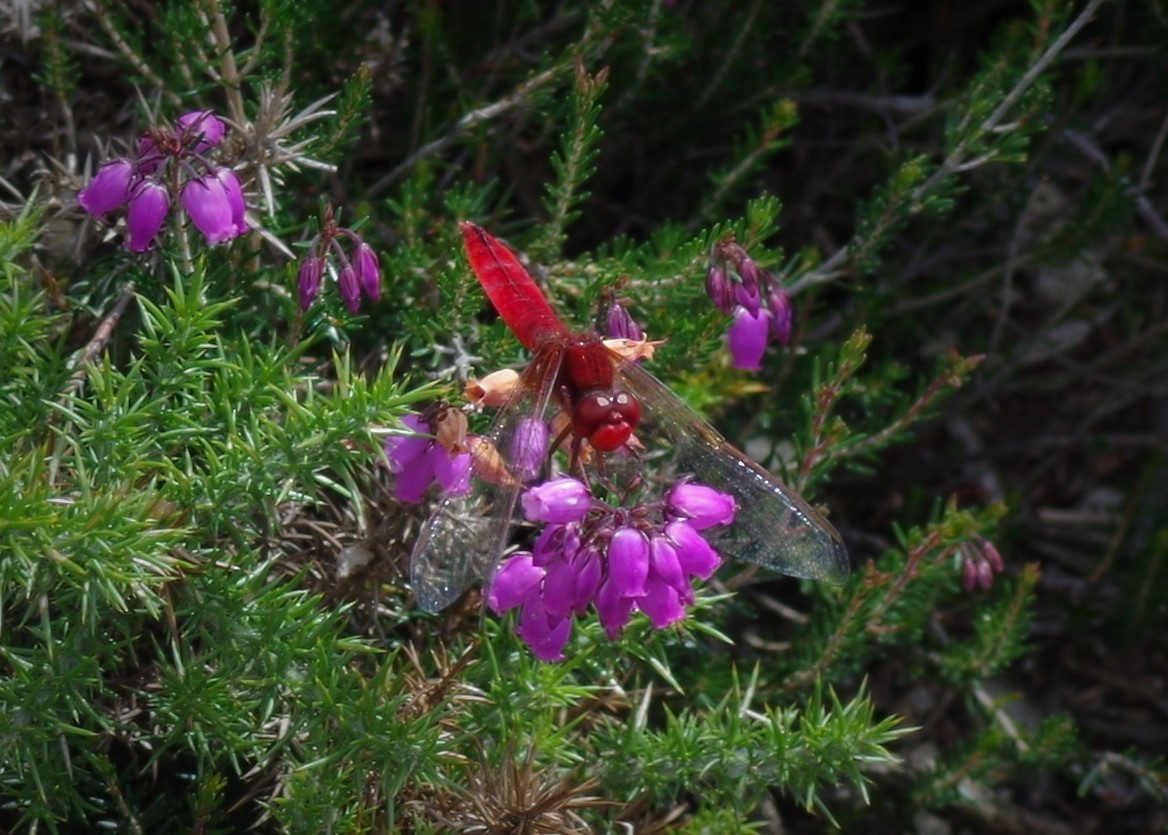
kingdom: Animalia
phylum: Arthropoda
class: Insecta
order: Odonata
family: Libellulidae
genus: Crocothemis
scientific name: Crocothemis erythraea
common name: Scarlet dragonfly
